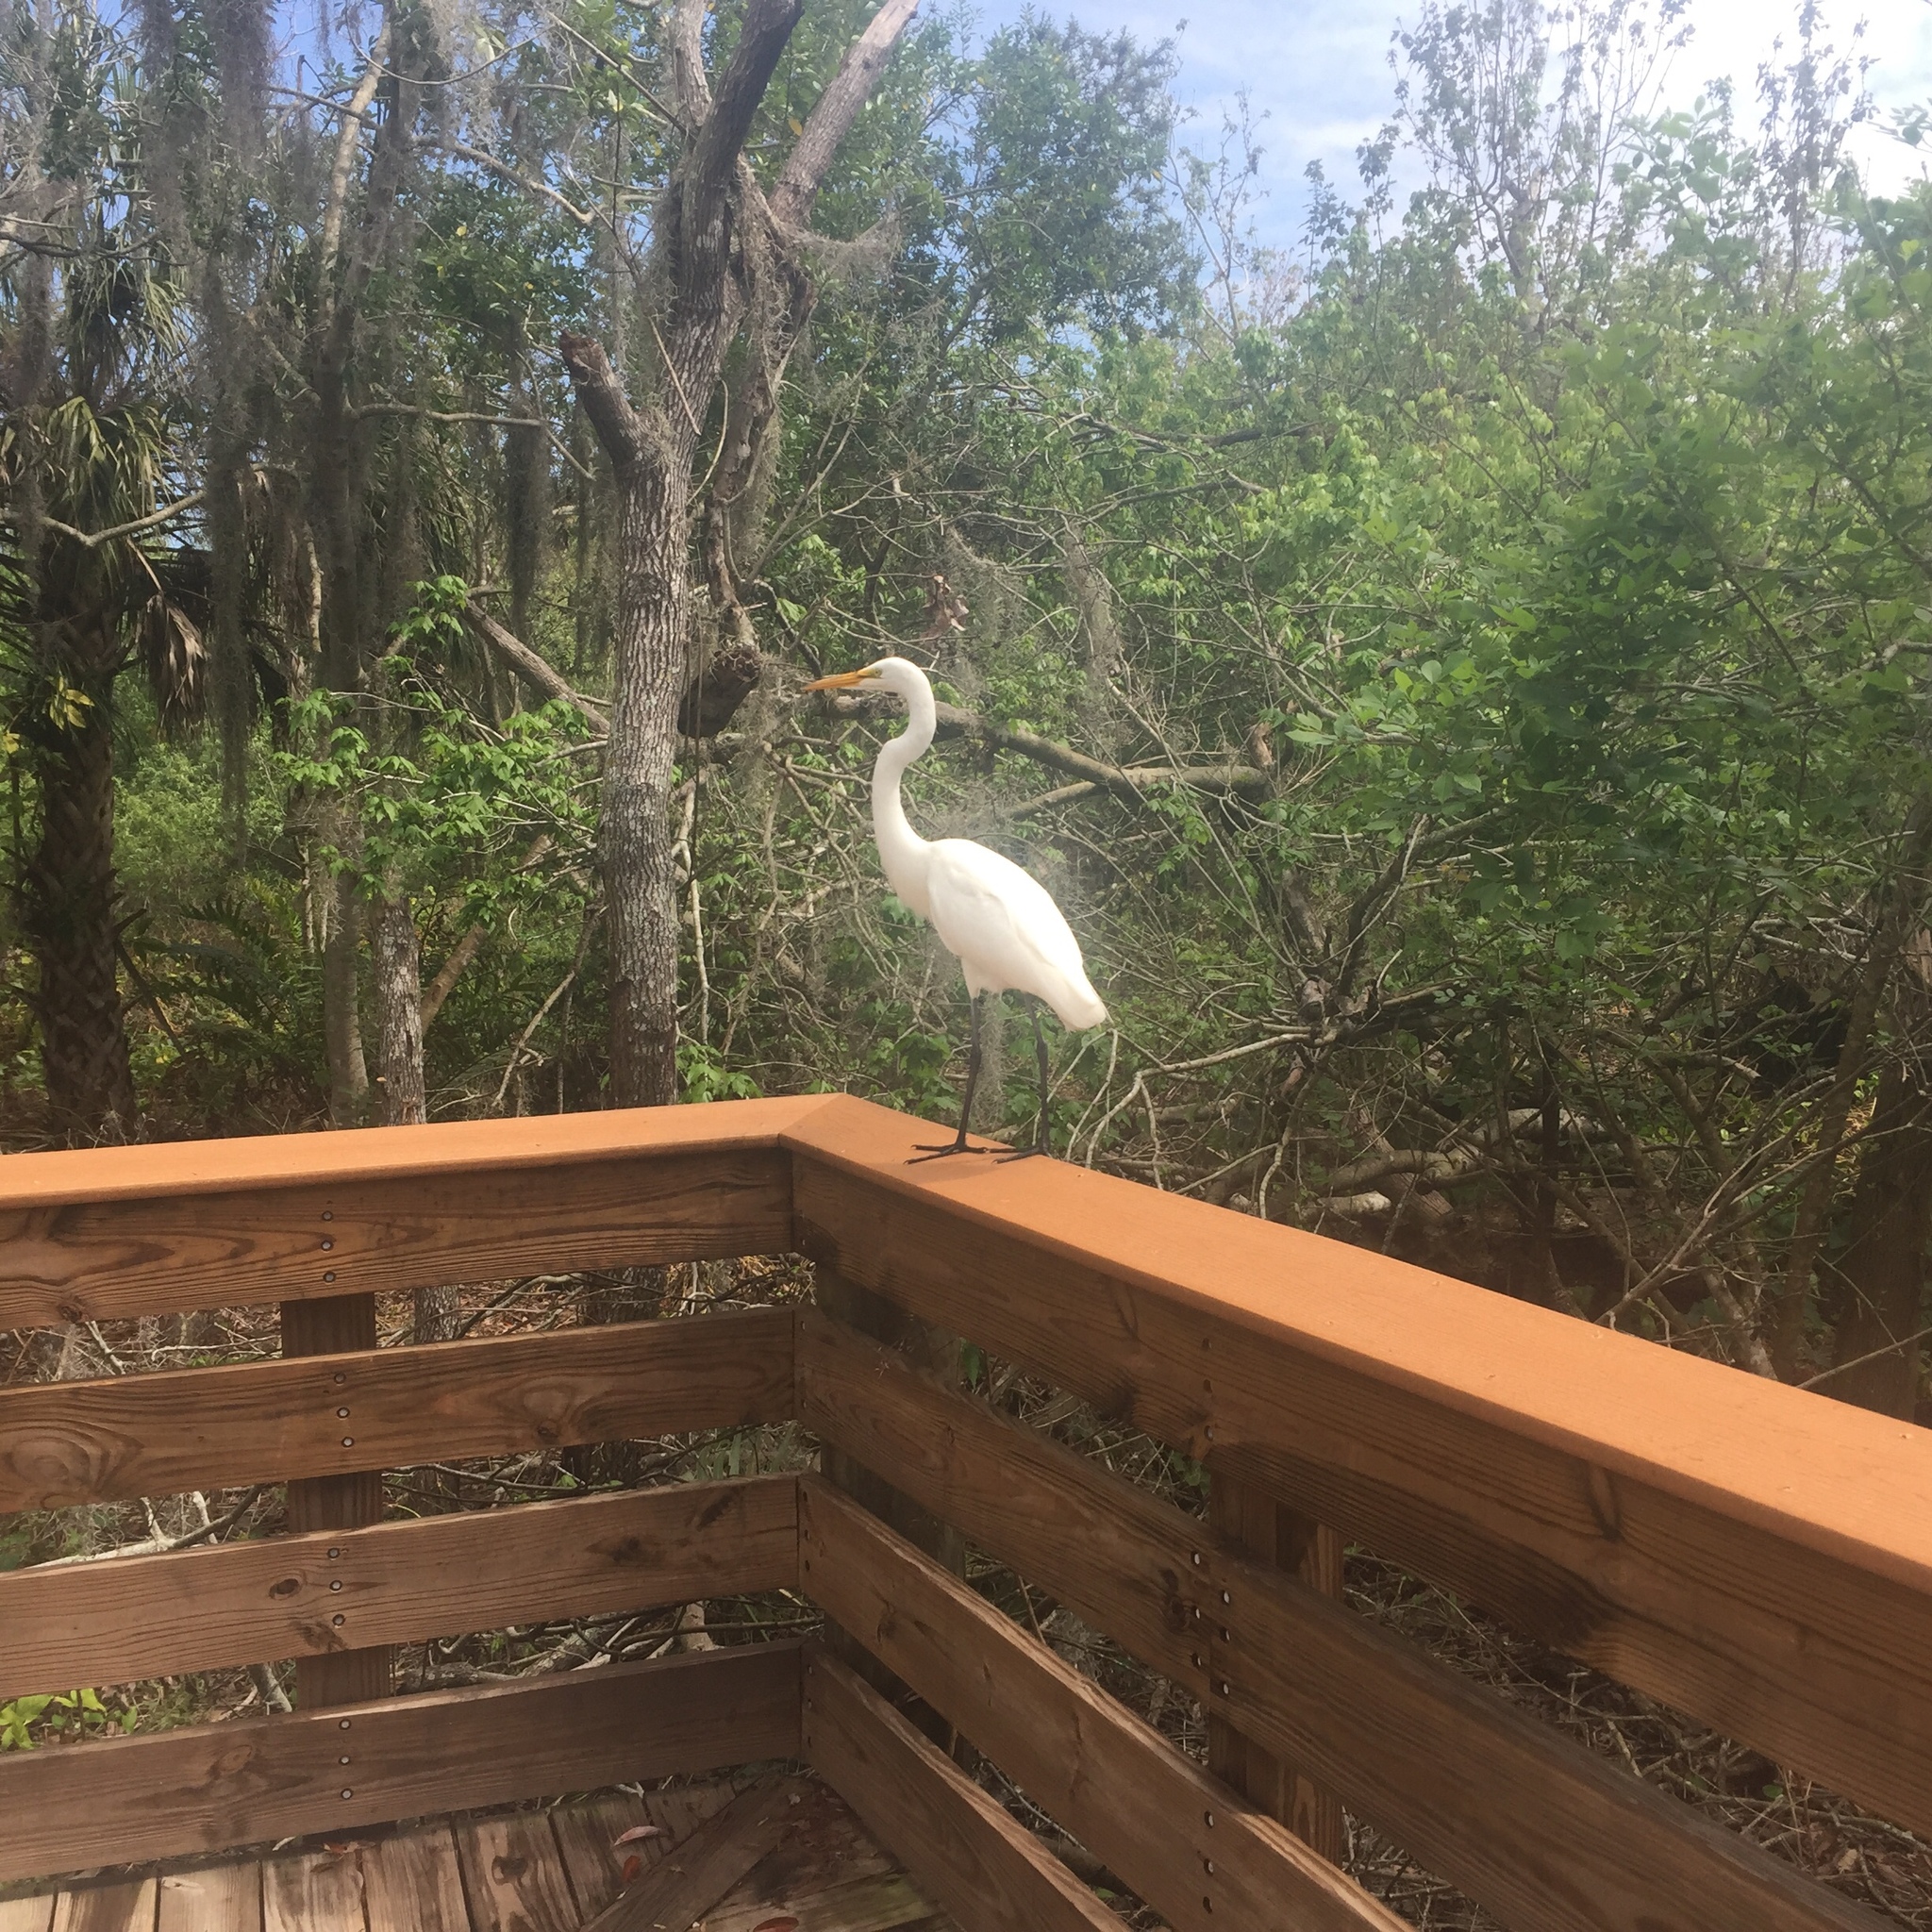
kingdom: Animalia
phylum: Chordata
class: Aves
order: Pelecaniformes
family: Ardeidae
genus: Ardea
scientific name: Ardea alba
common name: Great egret
